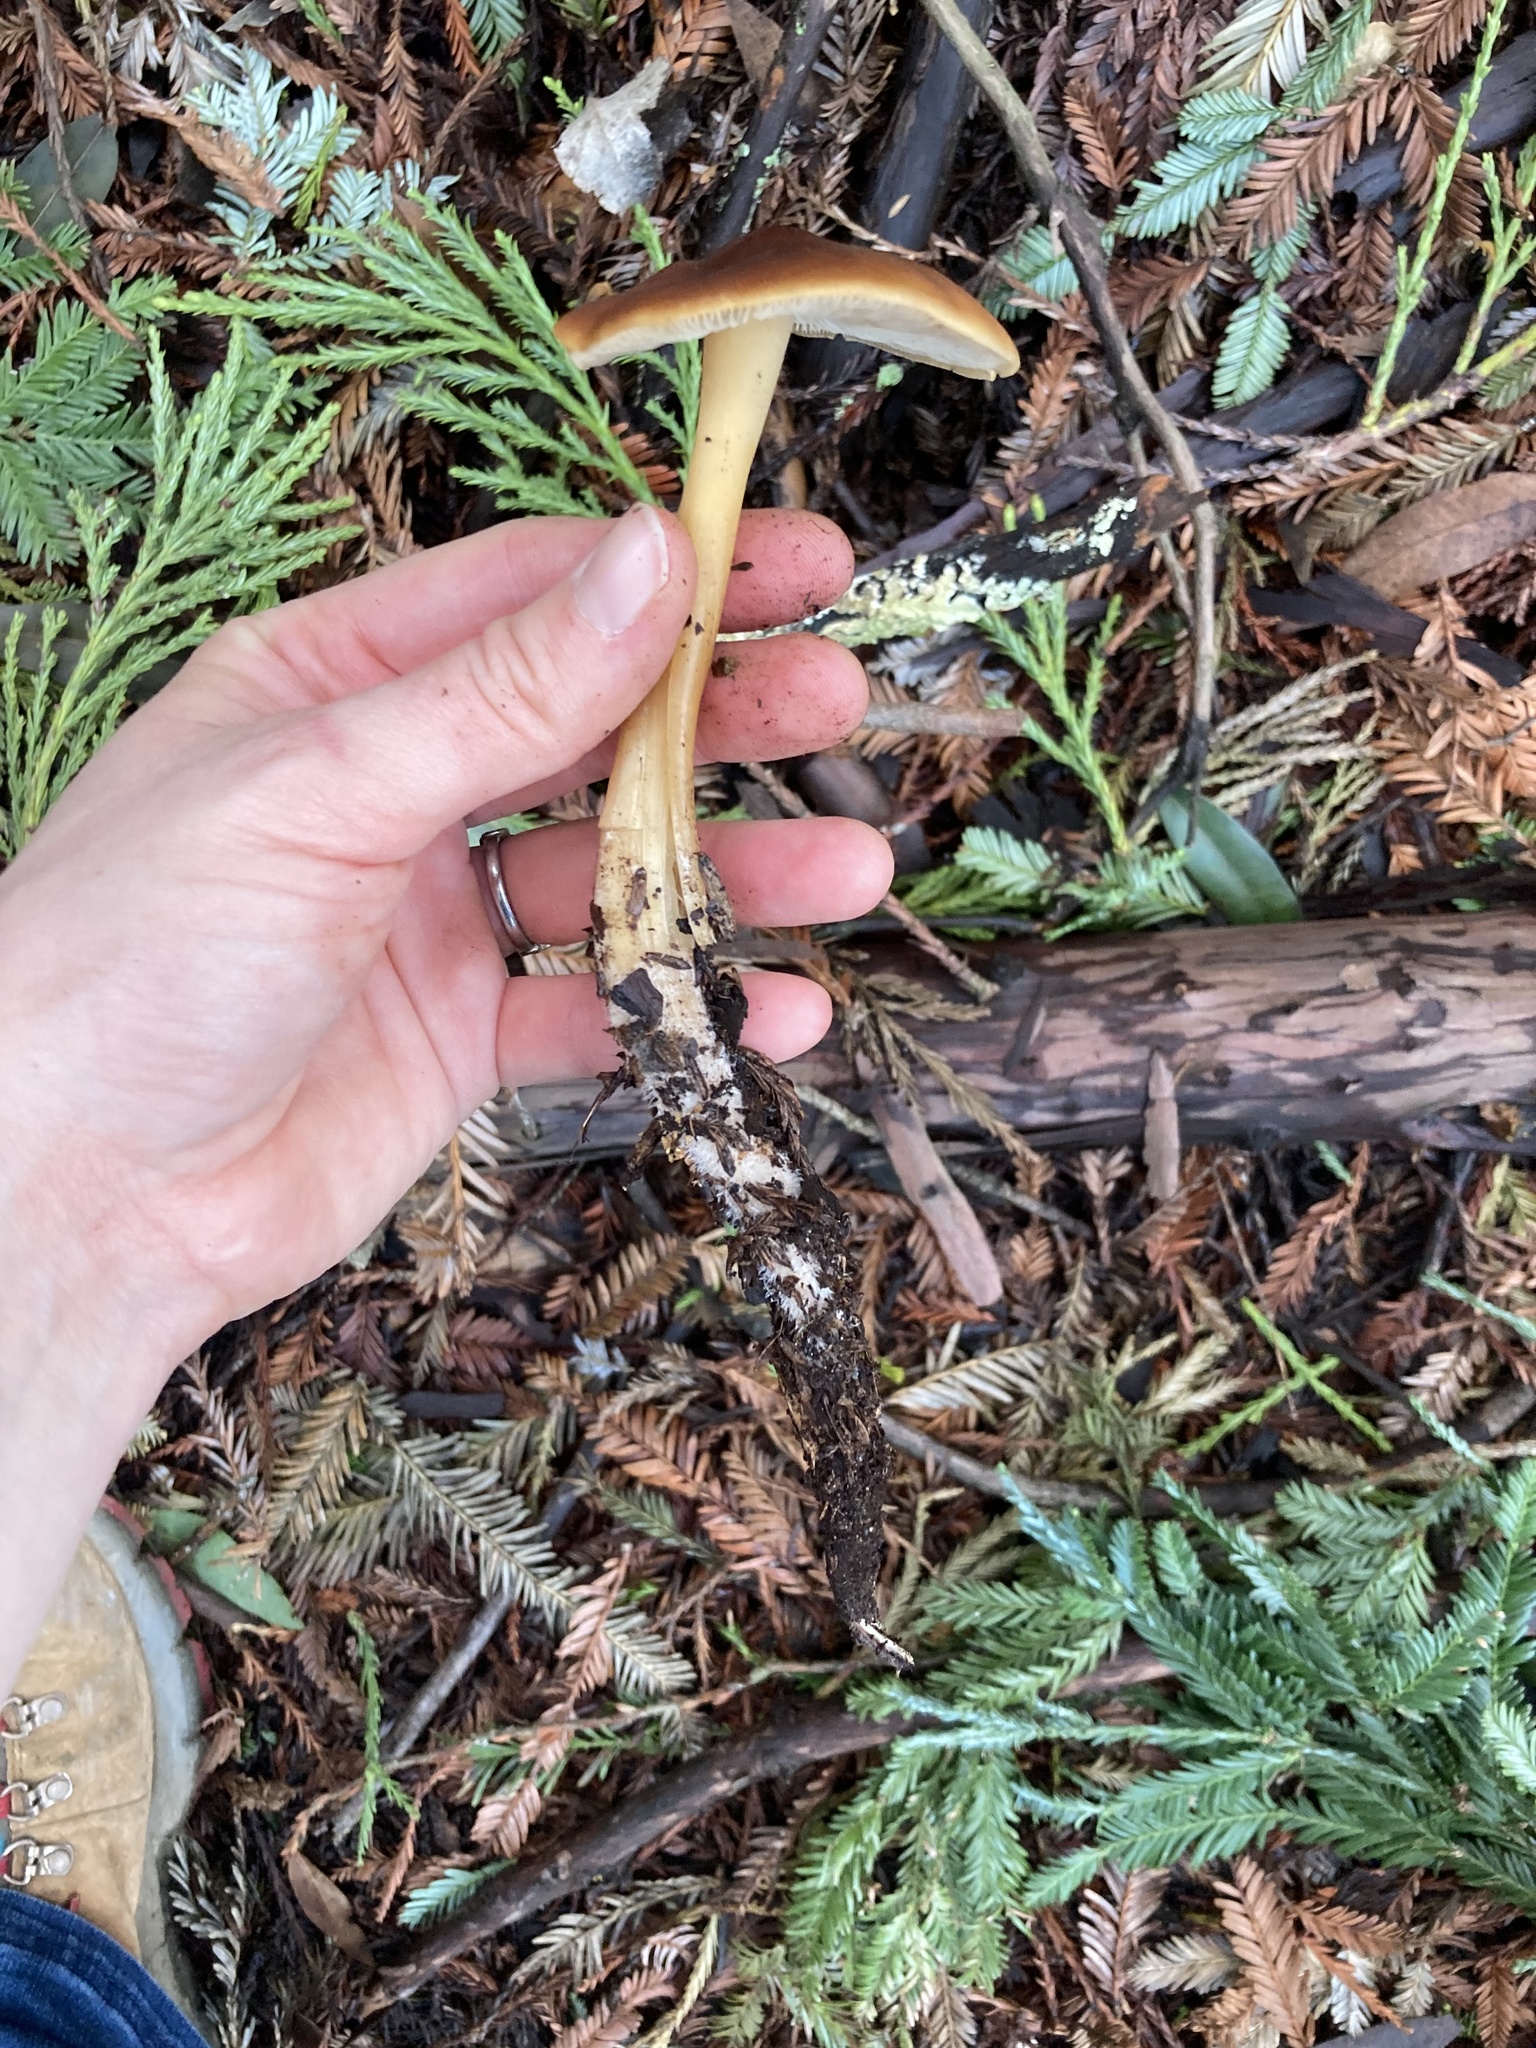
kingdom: Fungi
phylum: Basidiomycota
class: Agaricomycetes
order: Agaricales
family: Tricholomataceae
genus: Caulorhiza
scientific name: Caulorhiza umbonata
